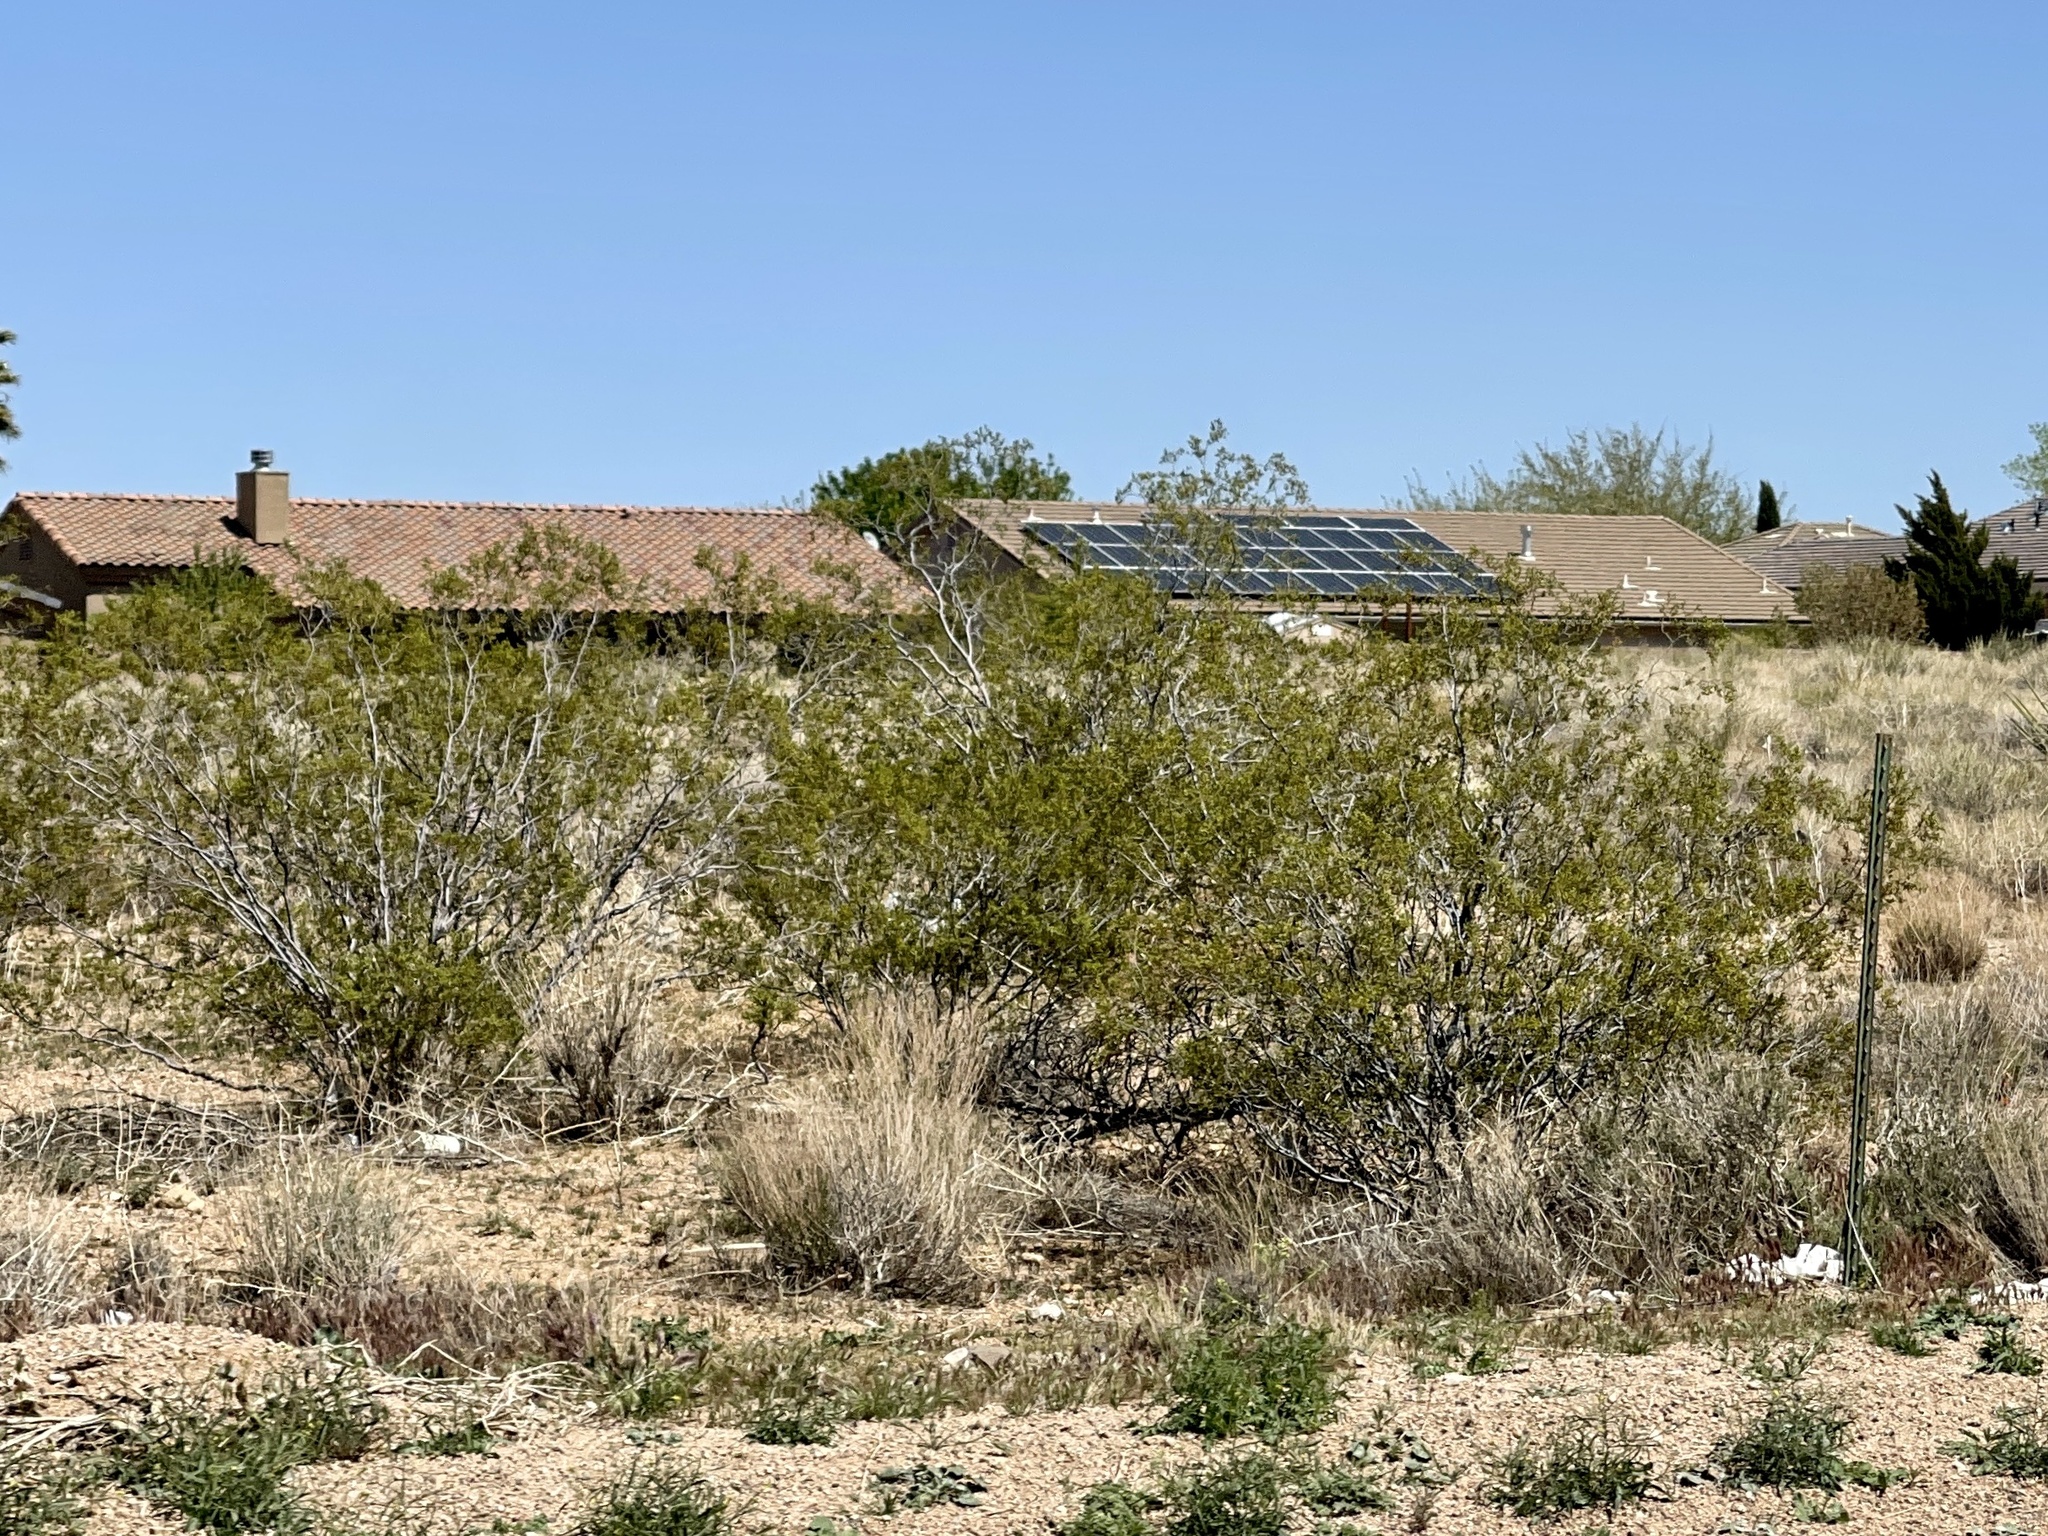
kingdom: Plantae
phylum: Tracheophyta
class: Magnoliopsida
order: Zygophyllales
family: Zygophyllaceae
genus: Larrea
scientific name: Larrea tridentata
